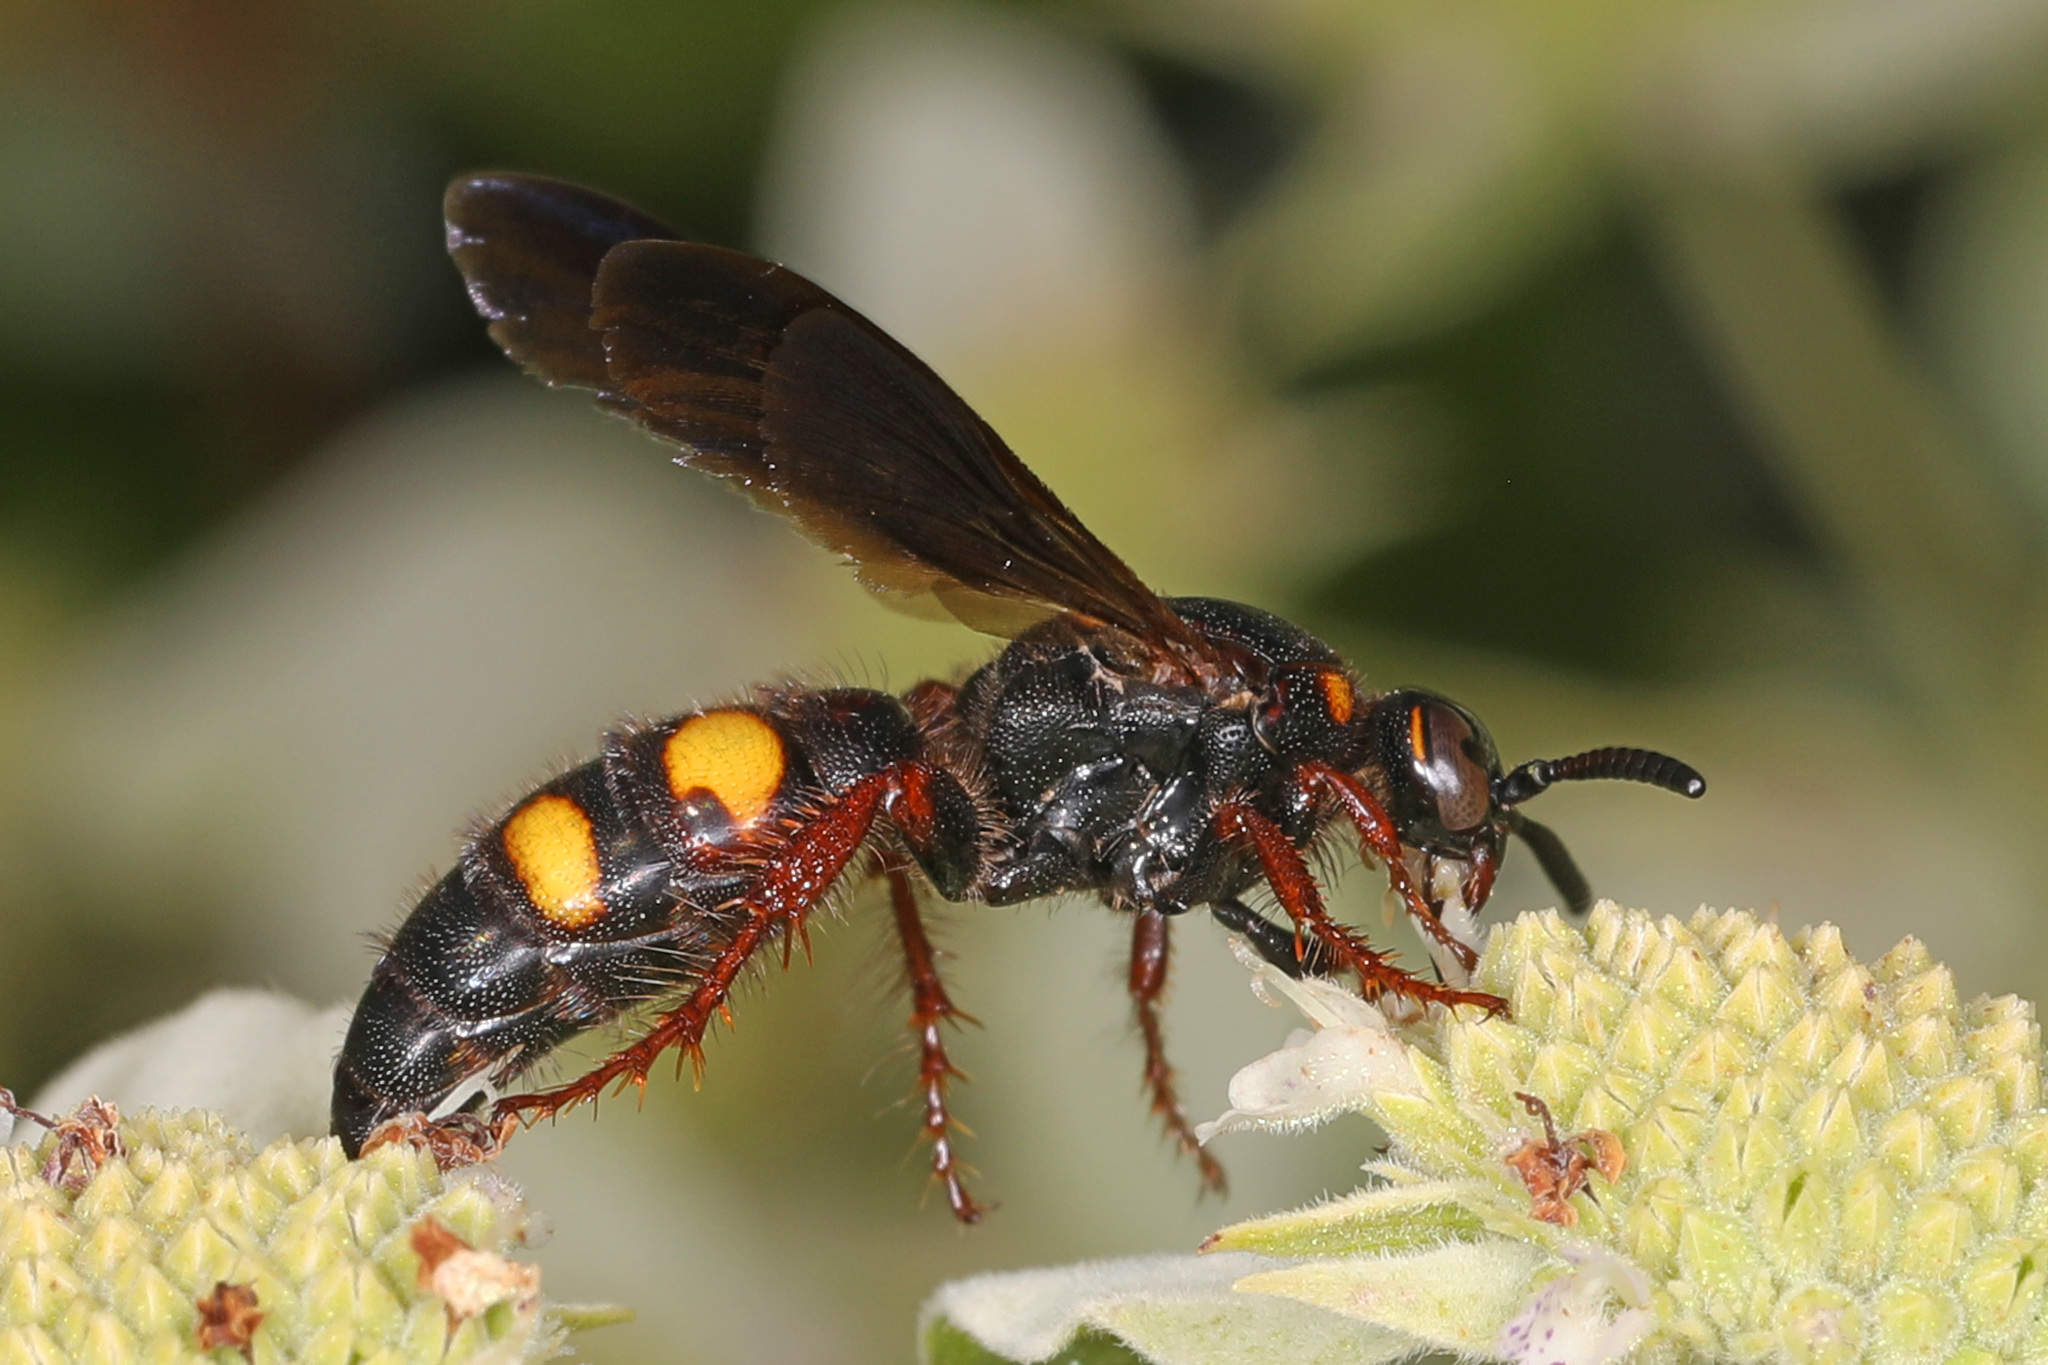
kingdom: Animalia
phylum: Arthropoda
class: Insecta
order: Hymenoptera
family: Scoliidae
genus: Scolia
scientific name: Scolia nobilitata
